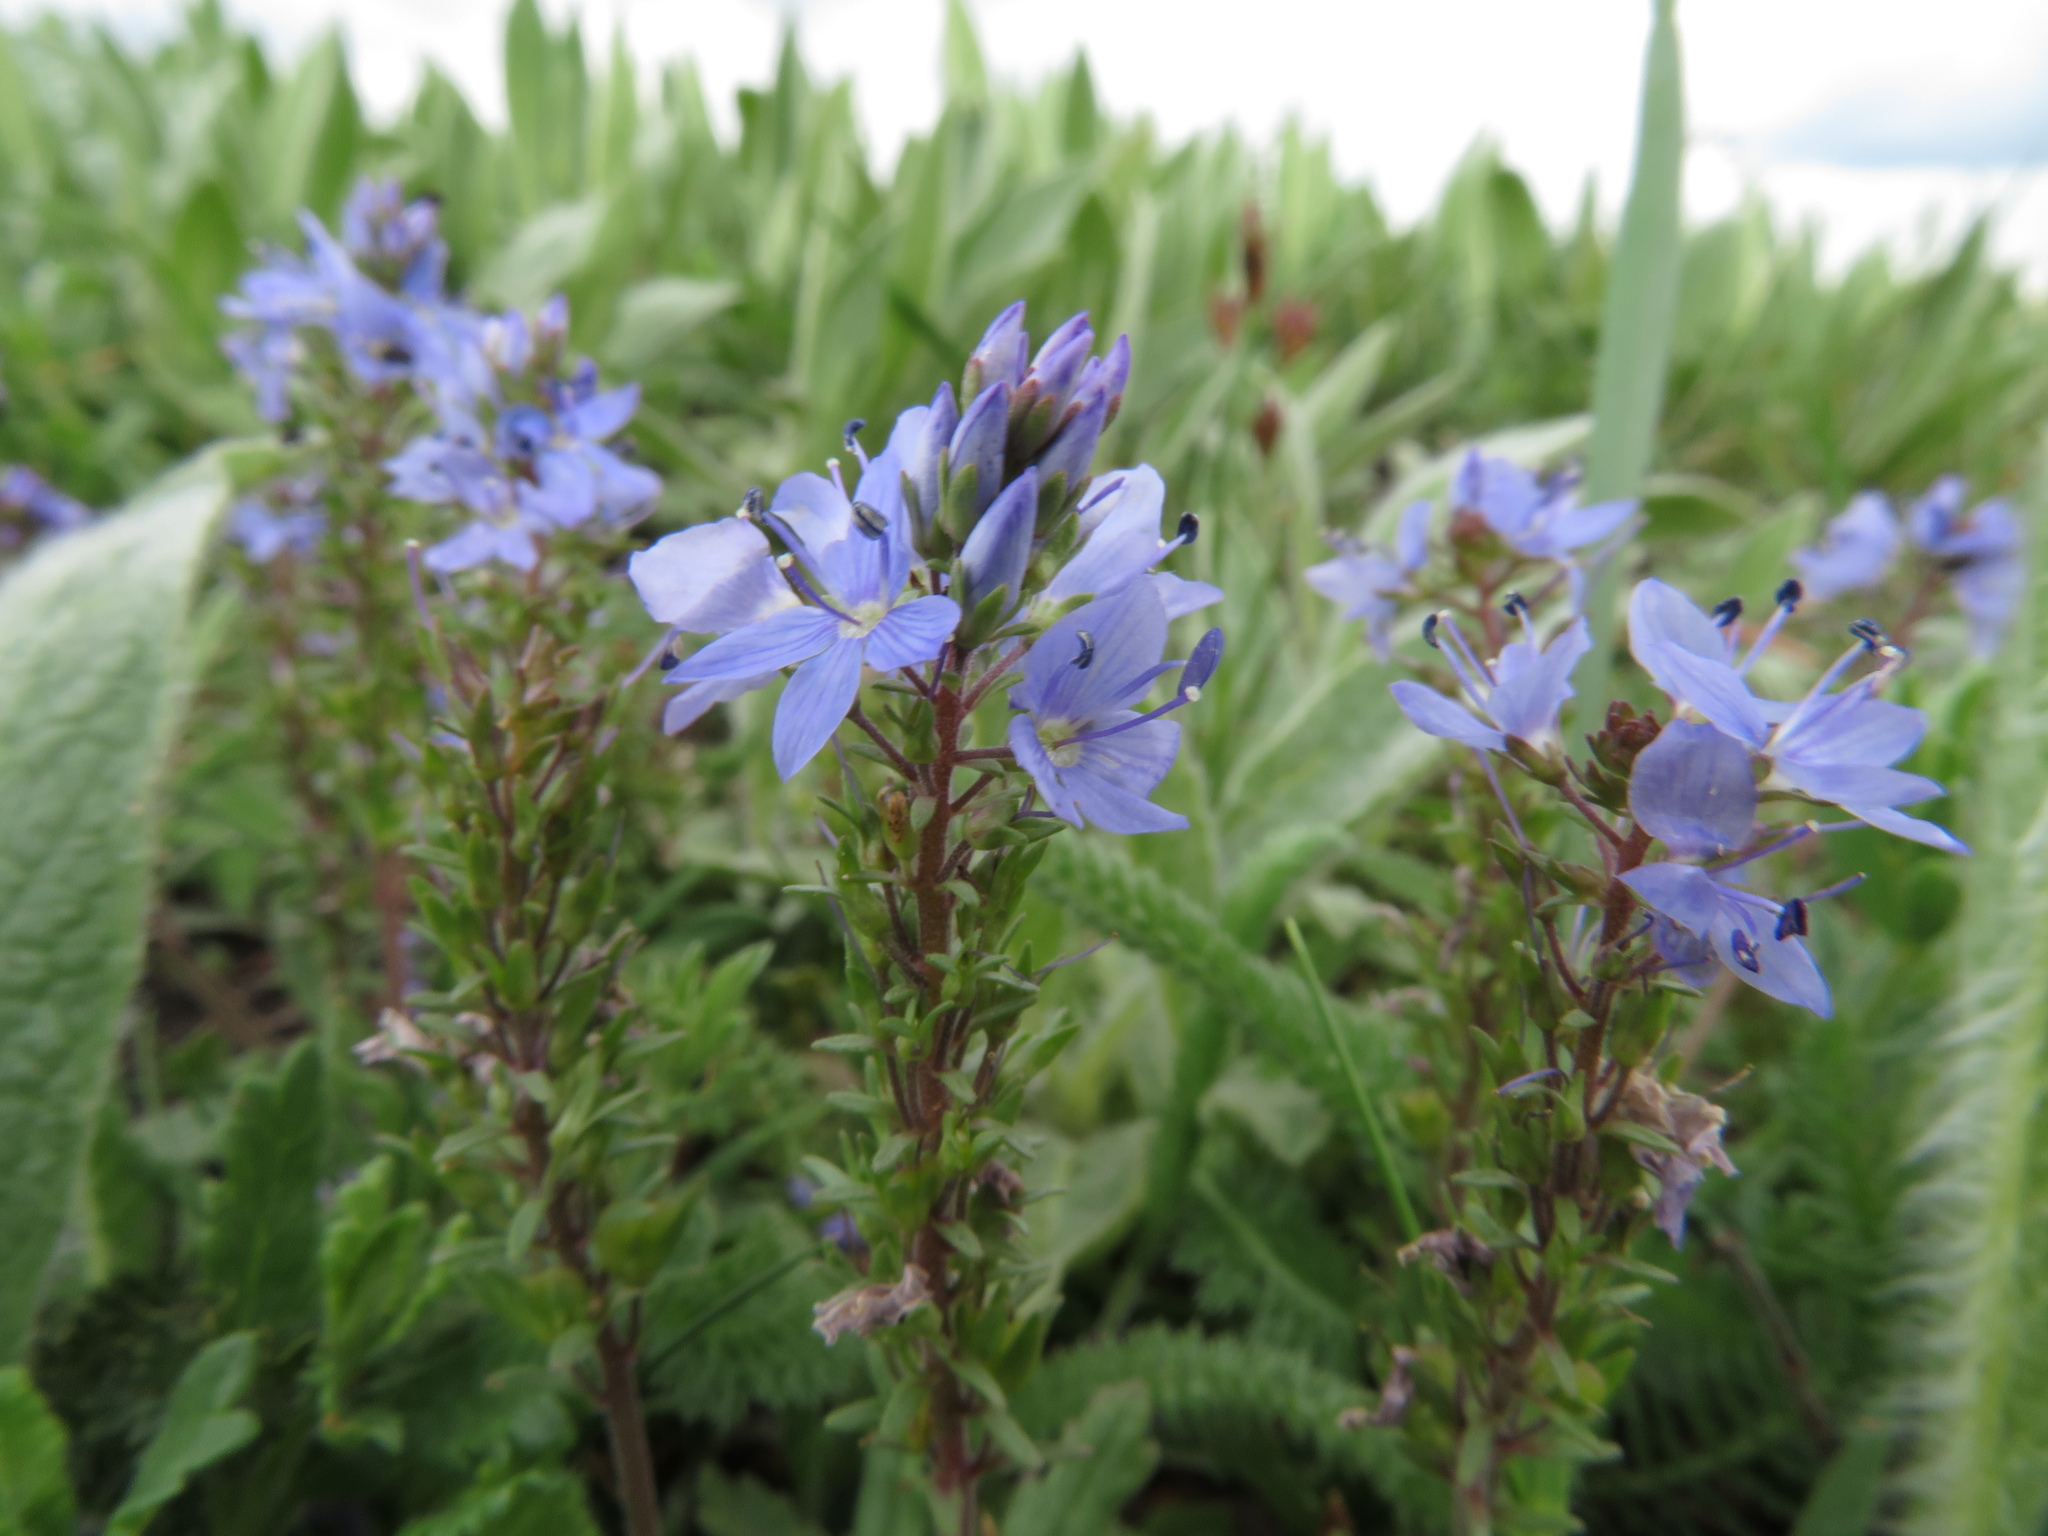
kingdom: Plantae
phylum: Tracheophyta
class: Magnoliopsida
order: Lamiales
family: Plantaginaceae
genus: Veronica
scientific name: Veronica prostrata
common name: Prostrate speedwell
